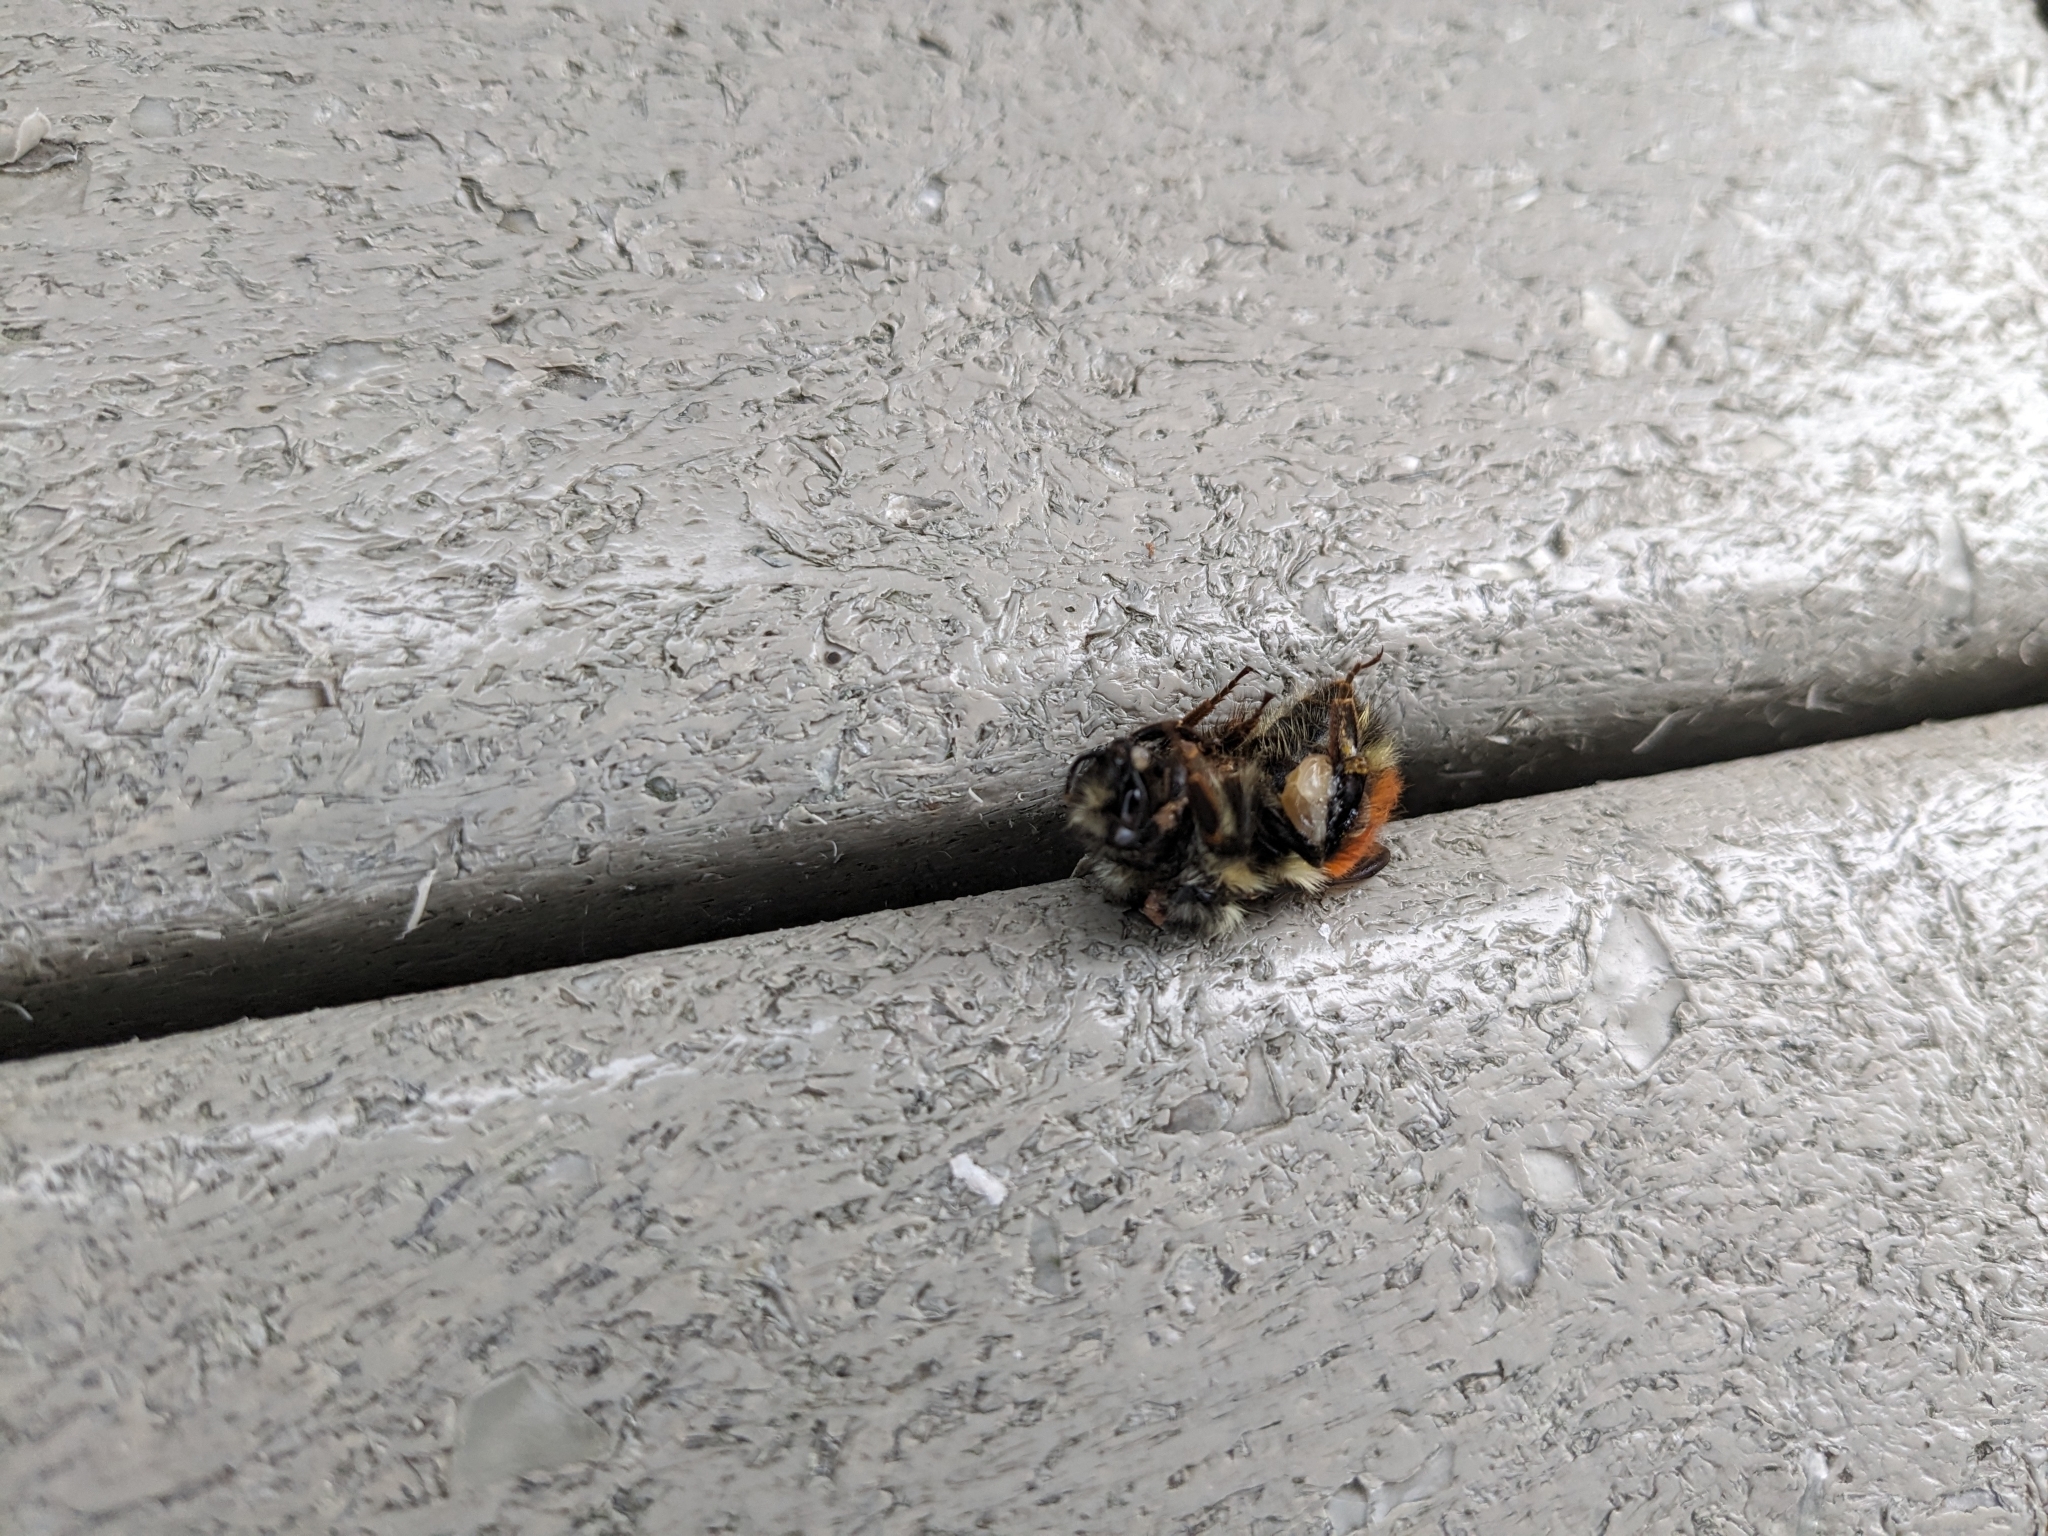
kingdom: Animalia
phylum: Arthropoda
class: Insecta
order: Hymenoptera
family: Apidae
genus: Bombus
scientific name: Bombus melanopygus
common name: Black tail bumble bee
